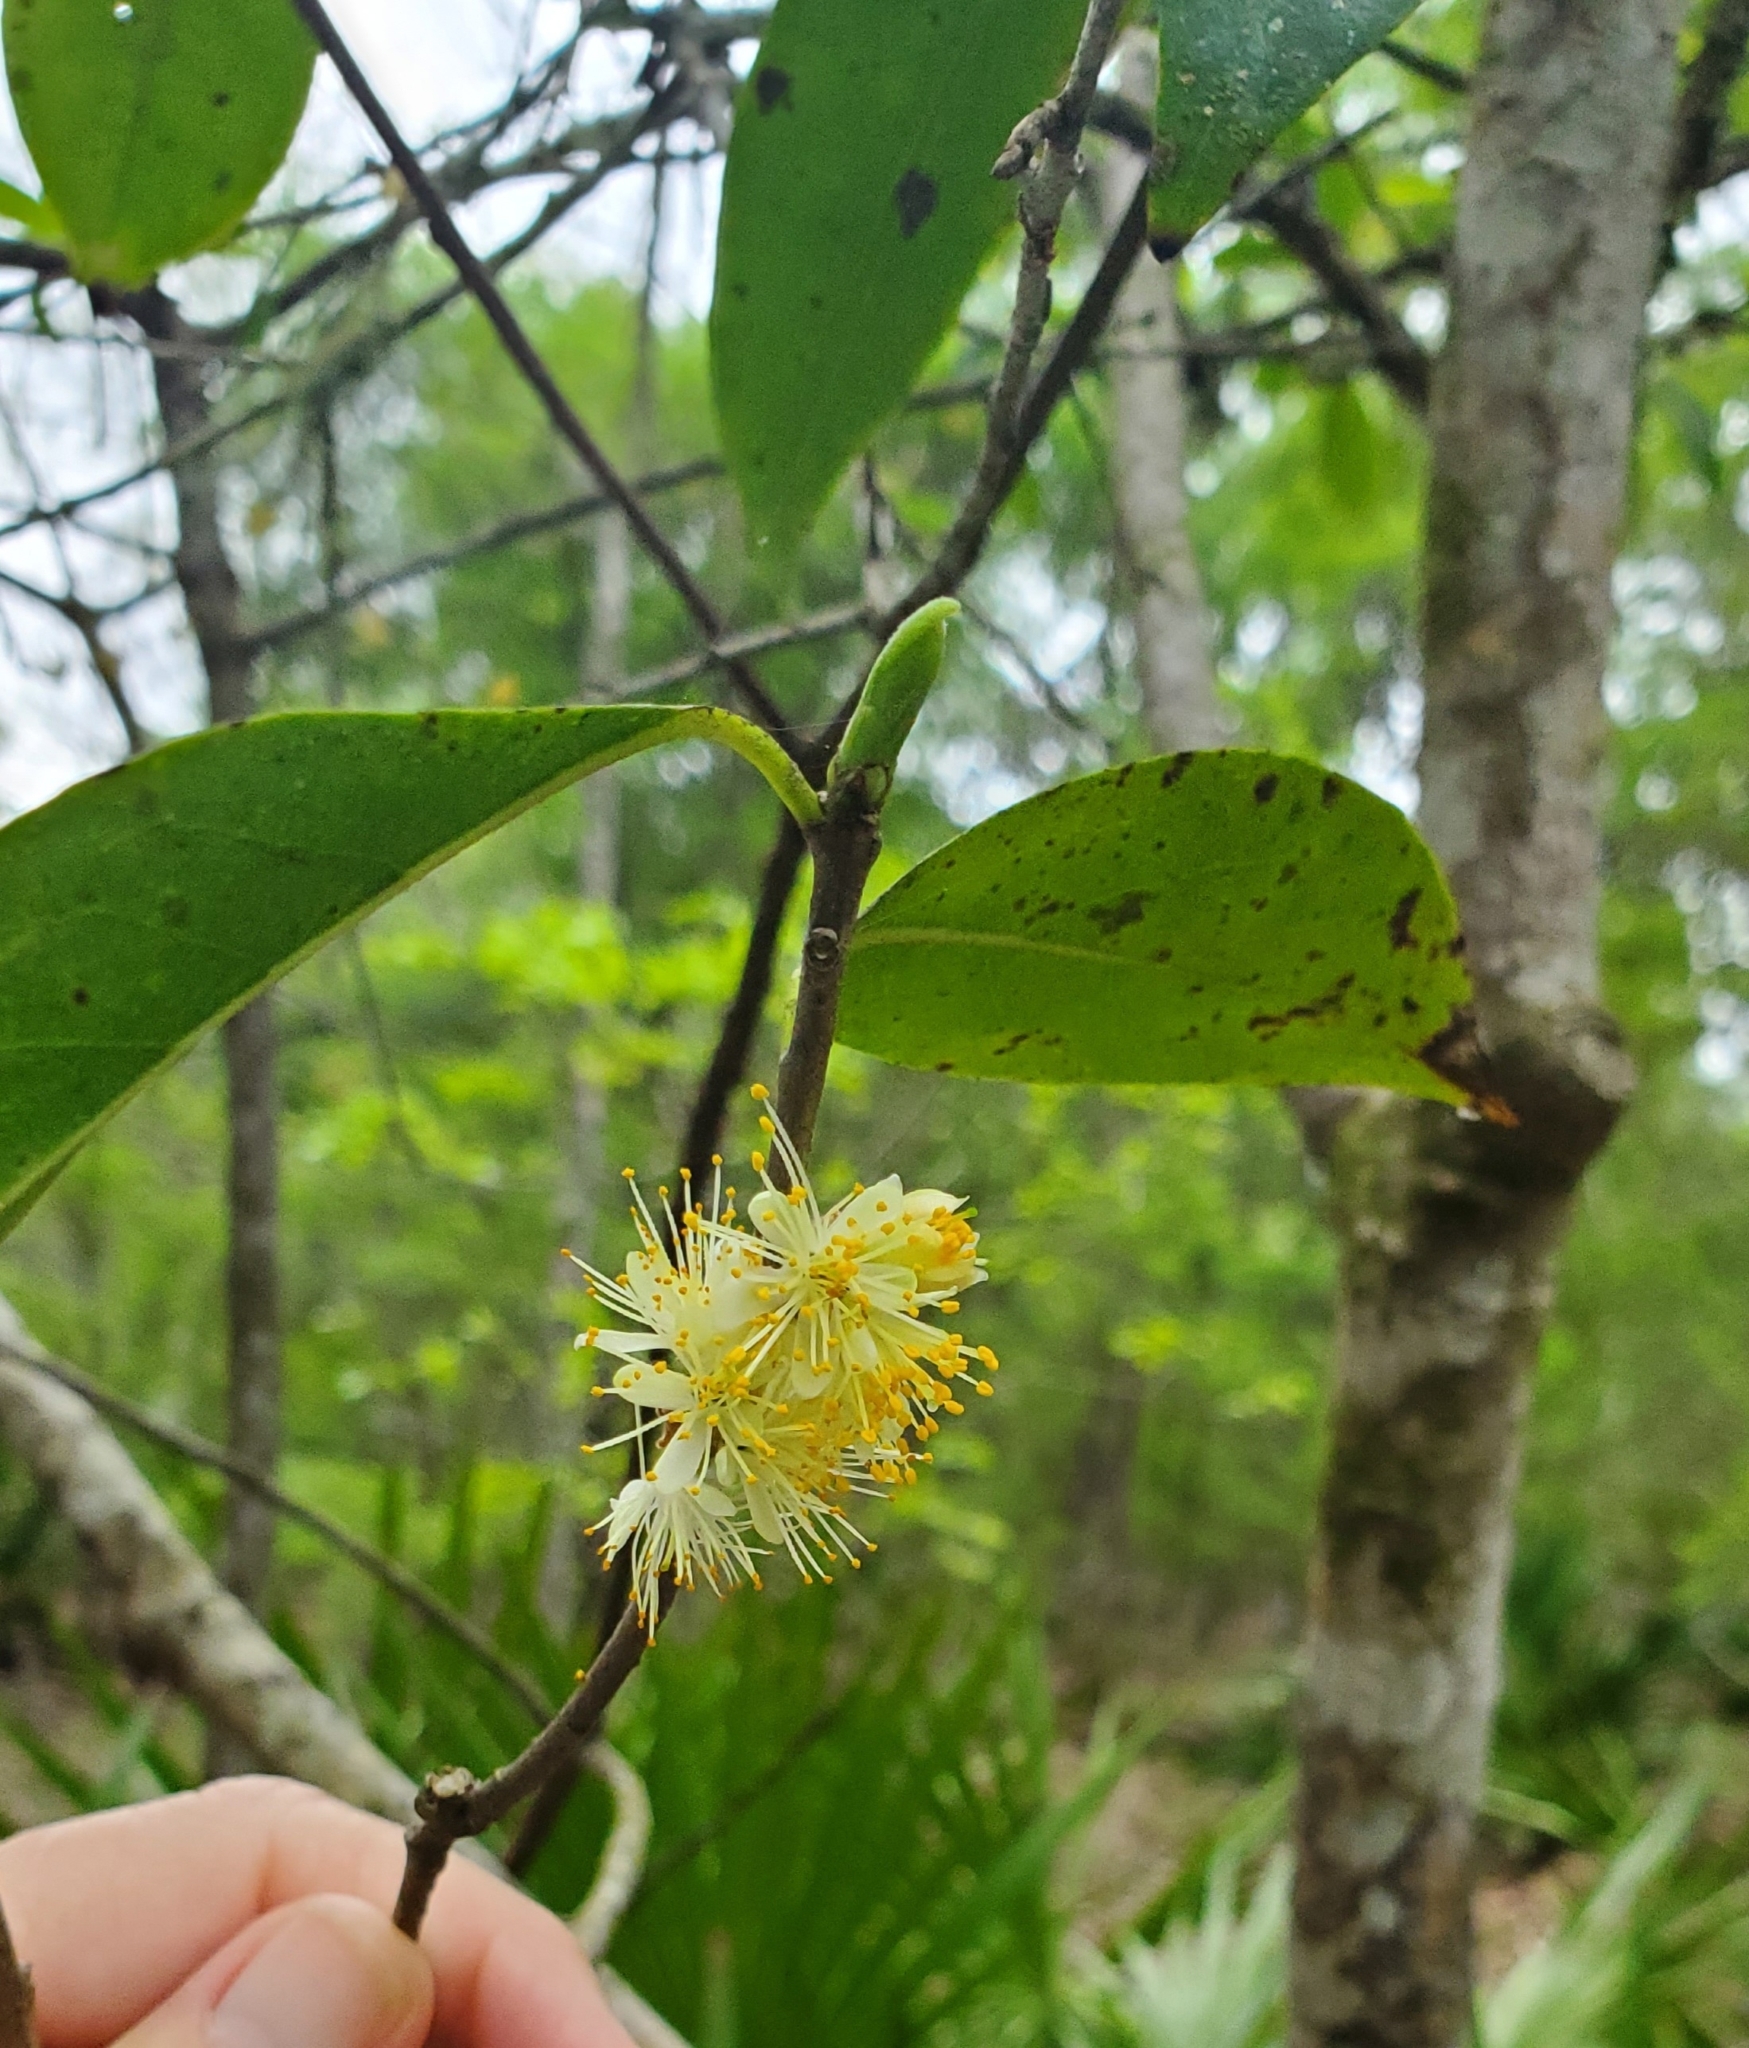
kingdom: Plantae
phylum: Tracheophyta
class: Magnoliopsida
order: Ericales
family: Symplocaceae
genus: Symplocos
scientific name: Symplocos tinctoria
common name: Horse-sugar
